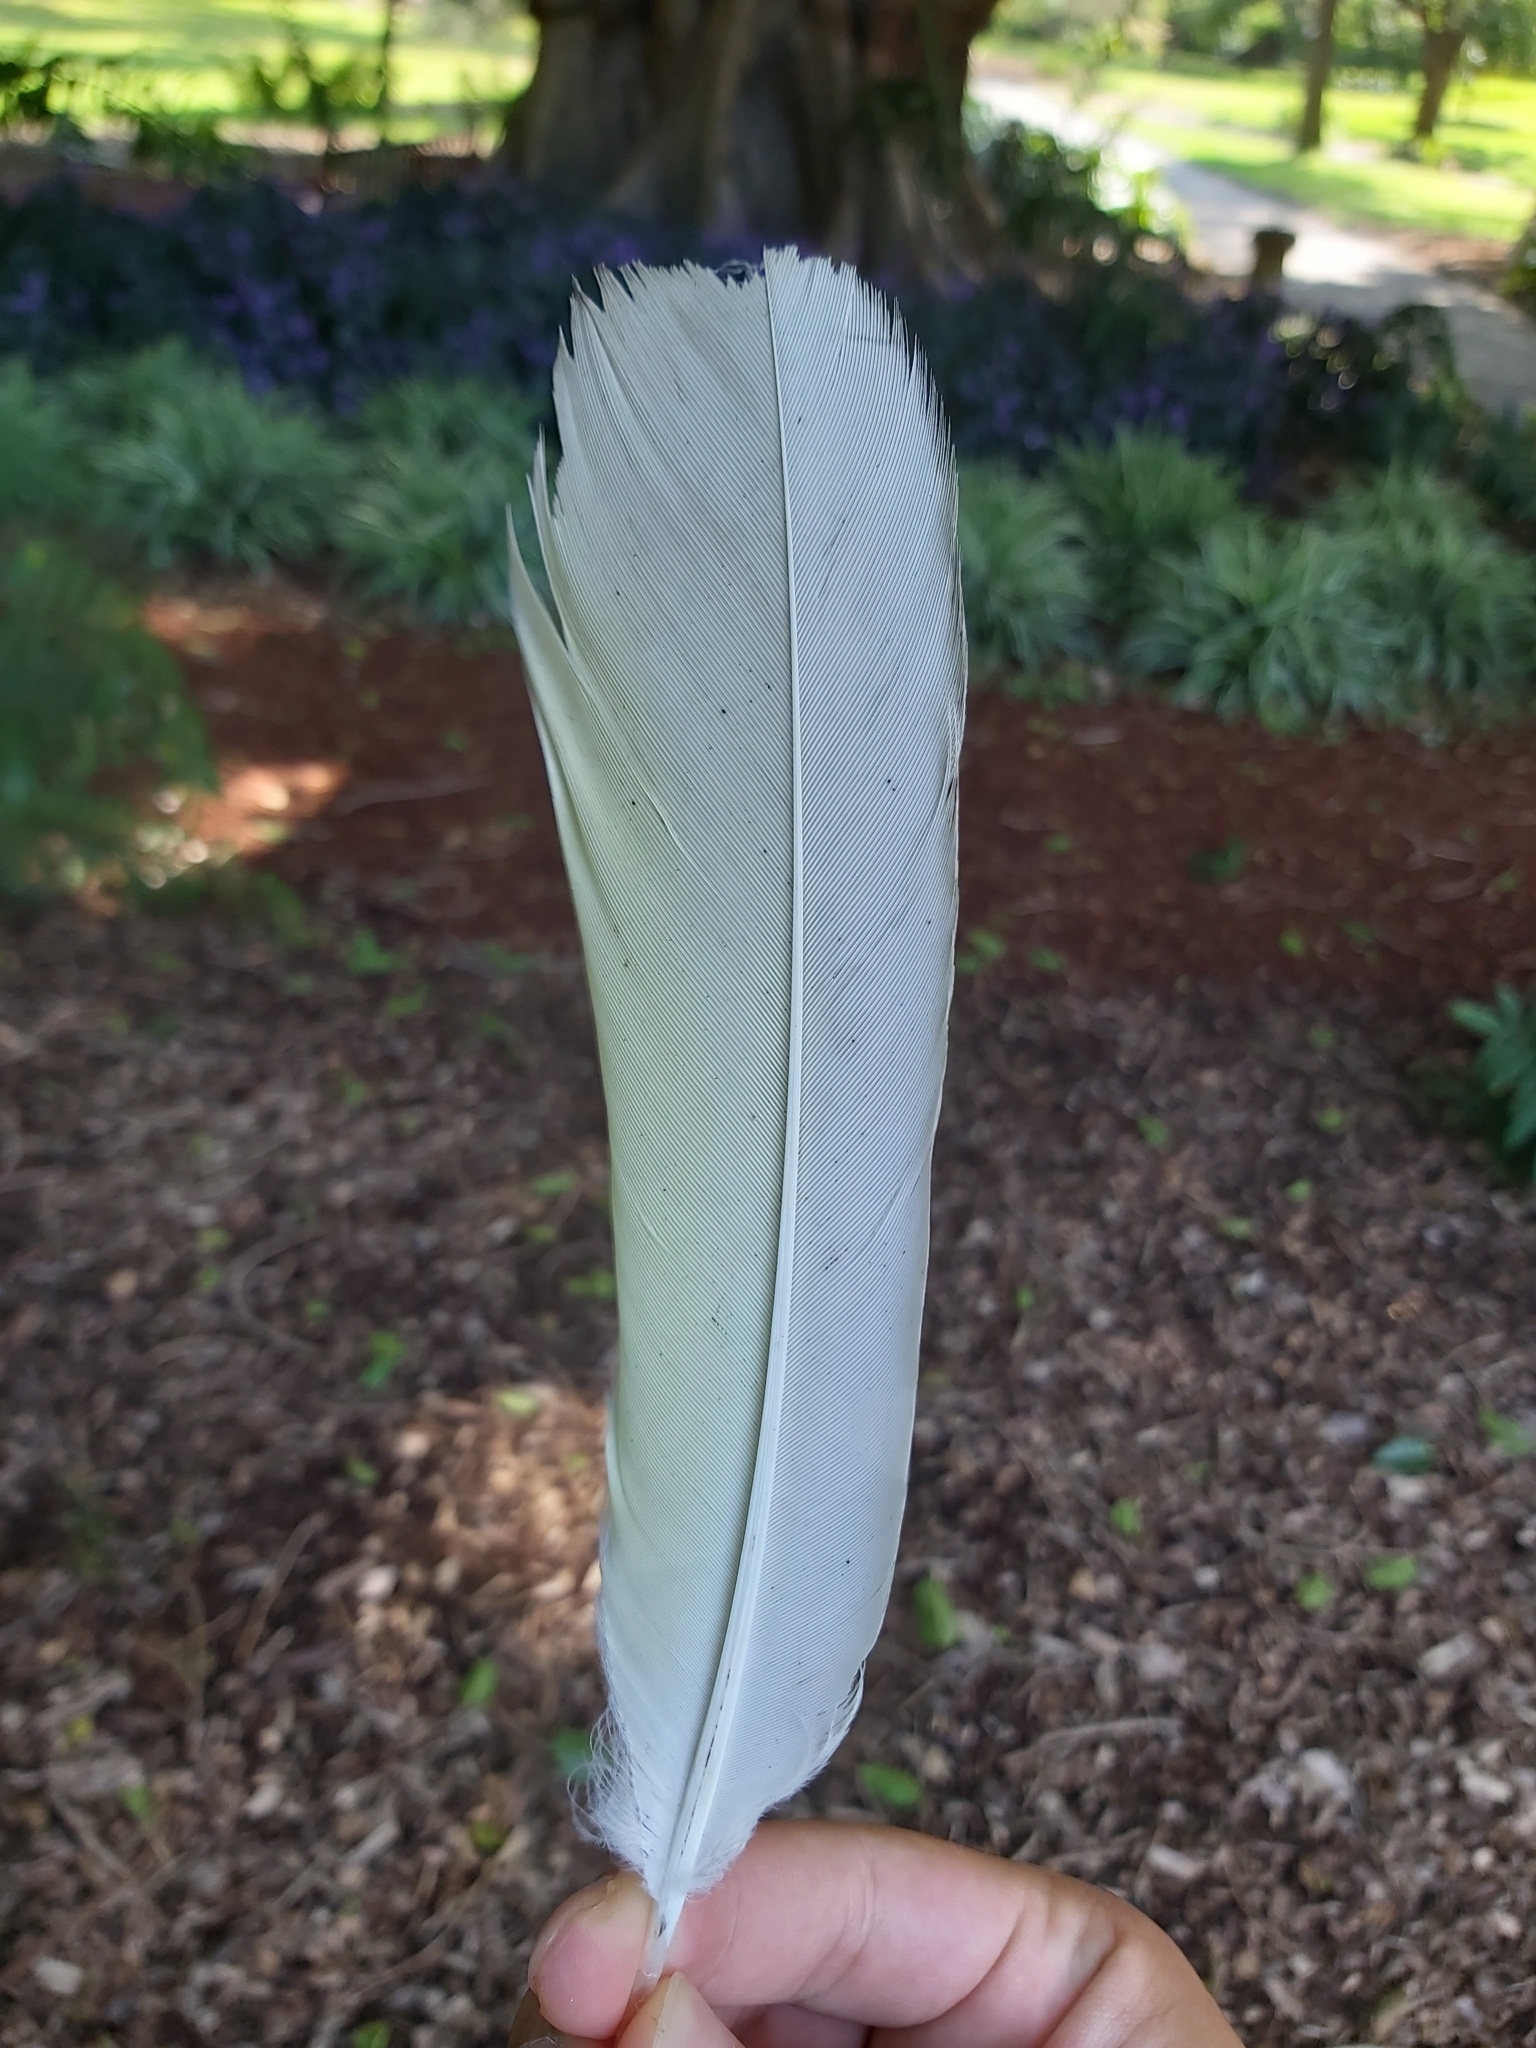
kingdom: Animalia
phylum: Chordata
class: Aves
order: Psittaciformes
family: Psittacidae
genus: Cacatua
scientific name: Cacatua galerita
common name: Sulphur-crested cockatoo
